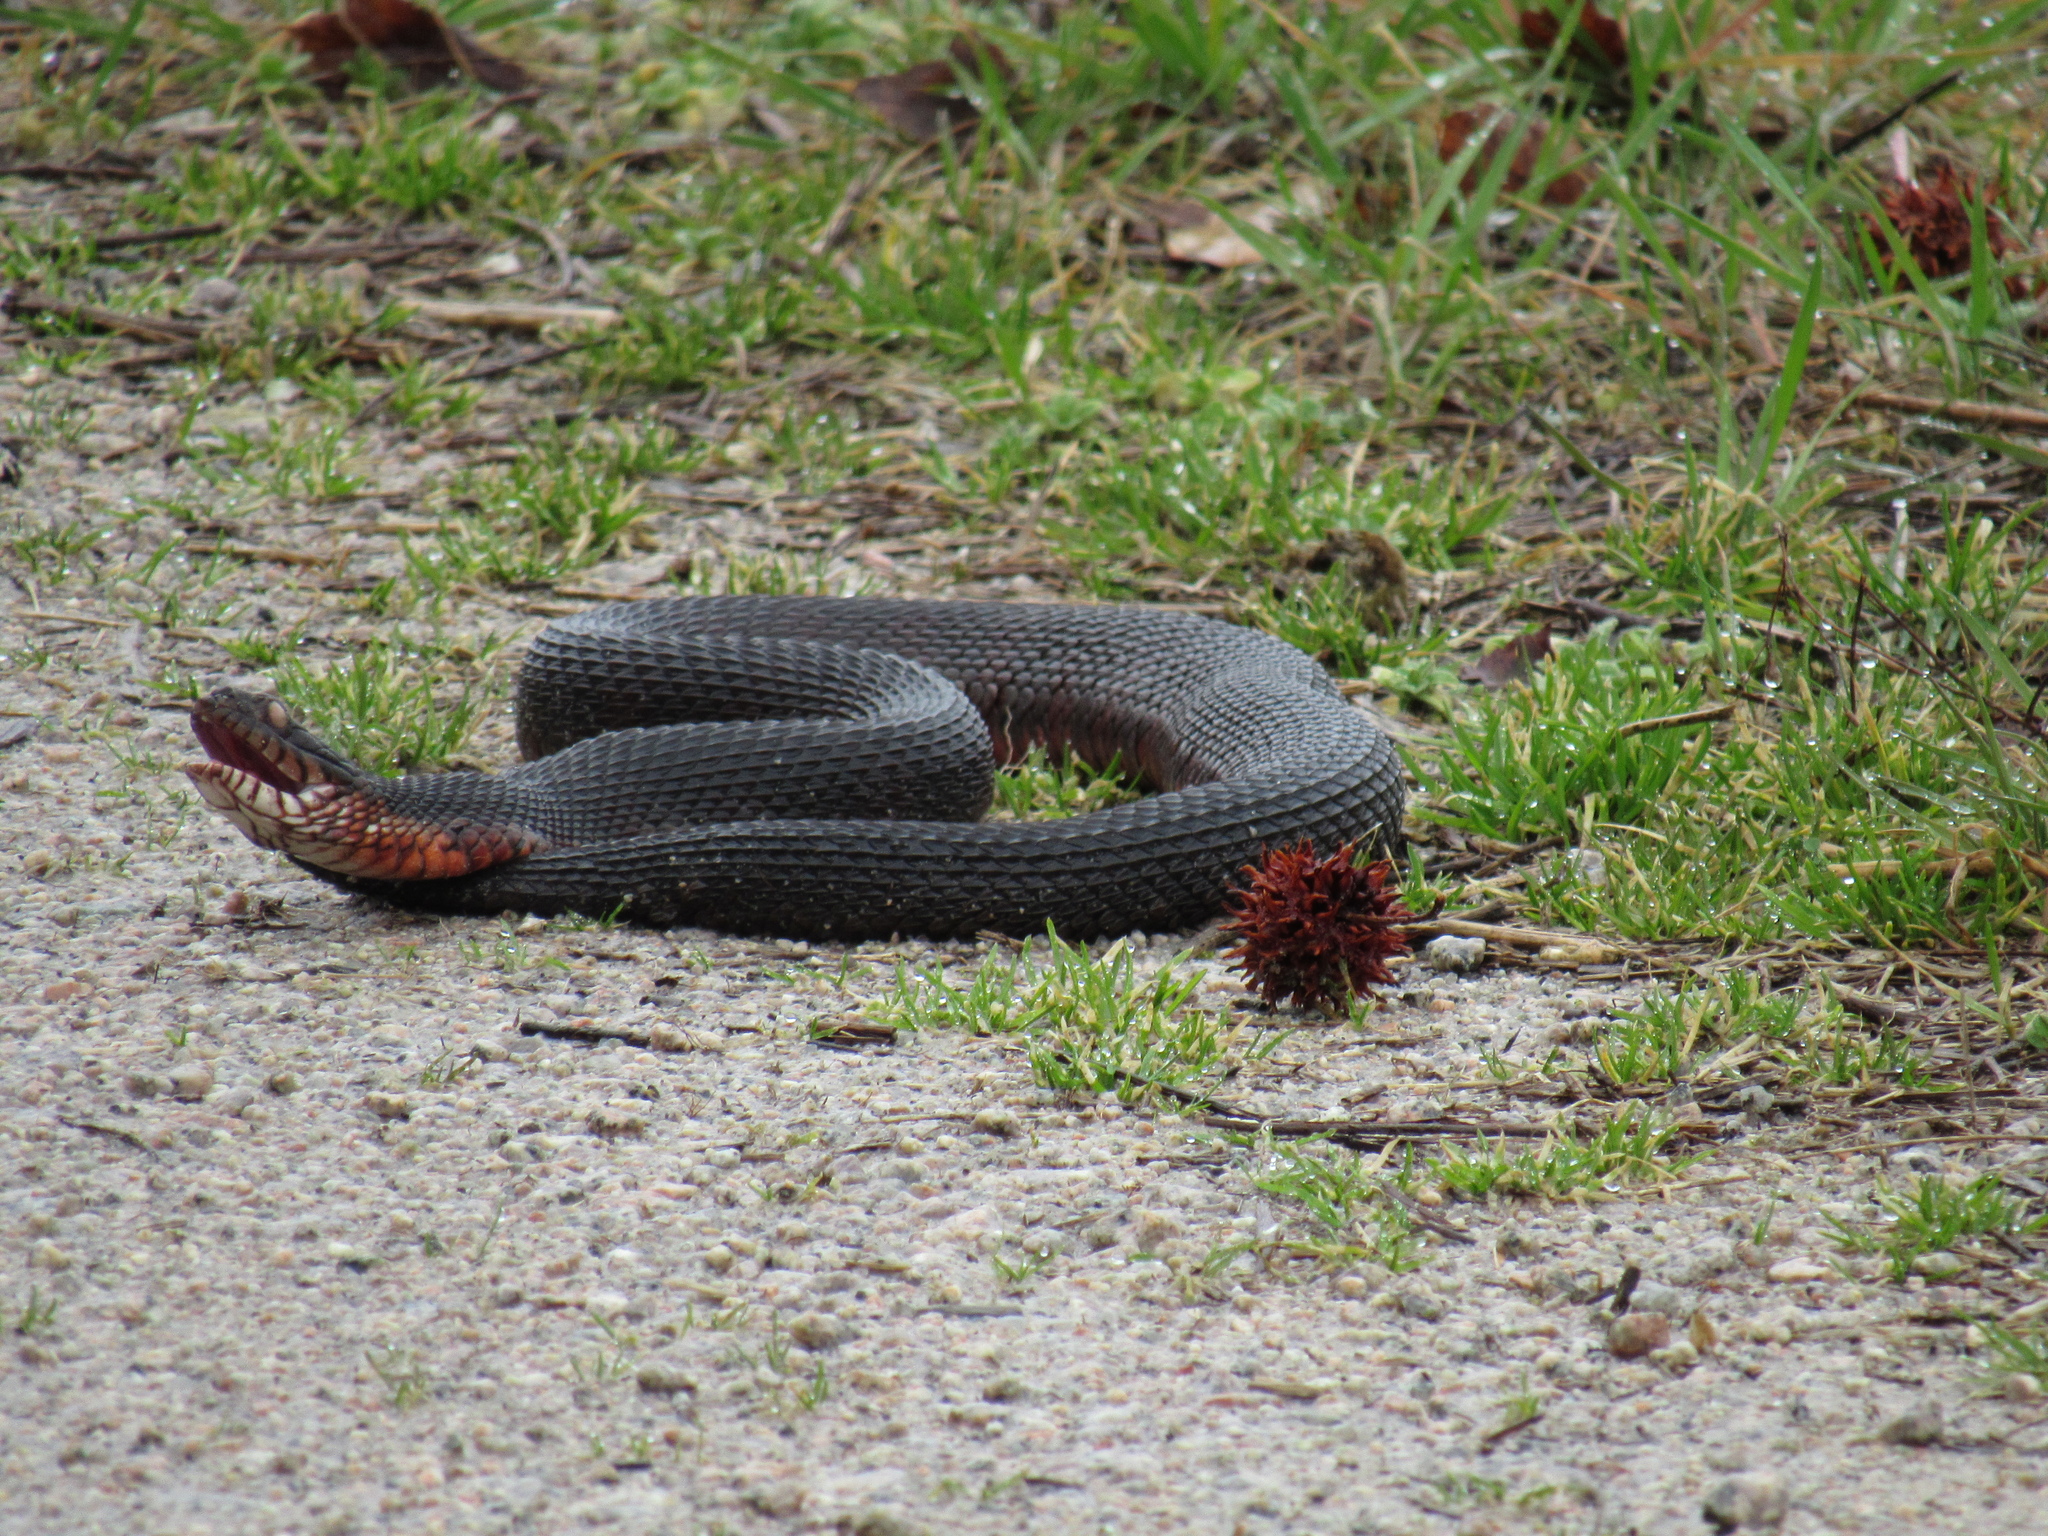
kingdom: Animalia
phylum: Chordata
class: Squamata
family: Colubridae
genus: Nerodia
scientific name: Nerodia
